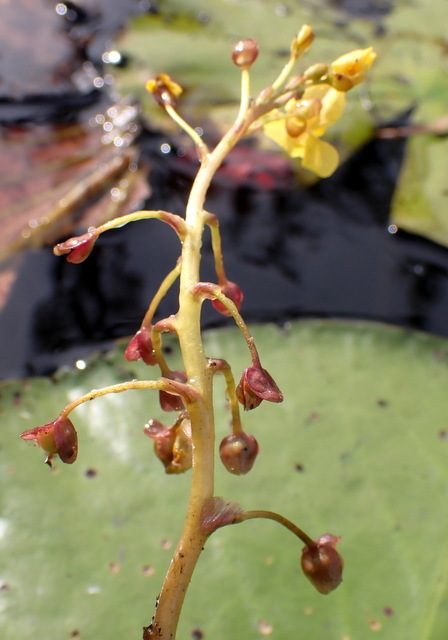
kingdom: Plantae
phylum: Tracheophyta
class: Magnoliopsida
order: Lamiales
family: Lentibulariaceae
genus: Utricularia
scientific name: Utricularia foliosa
